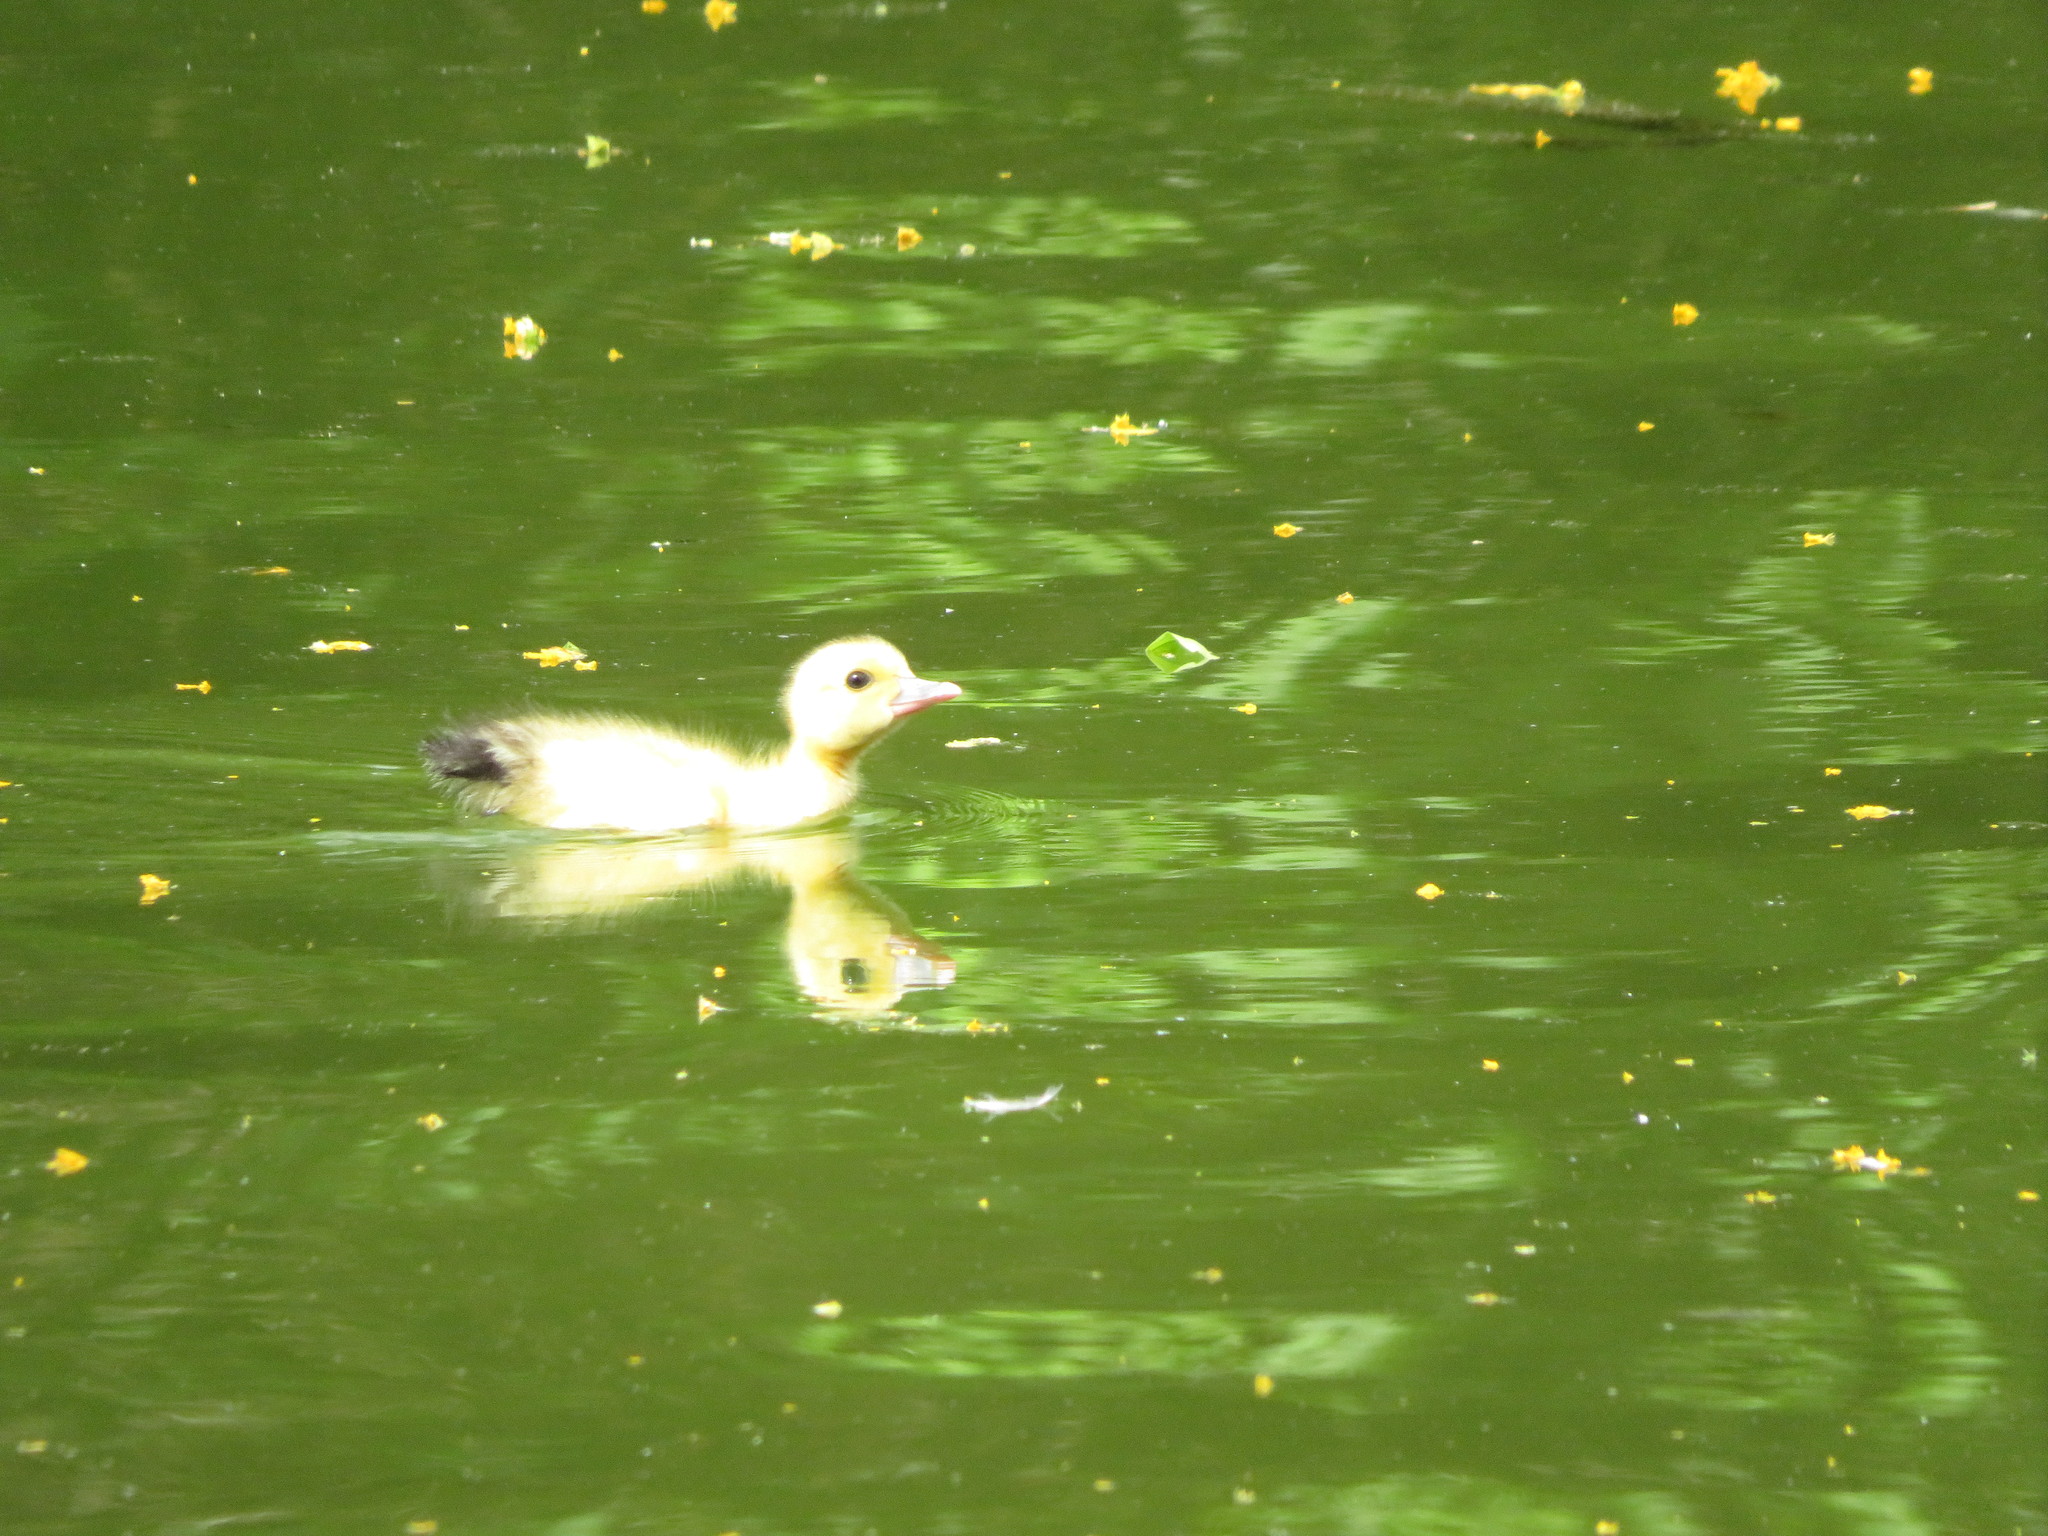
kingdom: Animalia
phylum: Chordata
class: Aves
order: Anseriformes
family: Anatidae
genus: Cairina
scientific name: Cairina moschata
